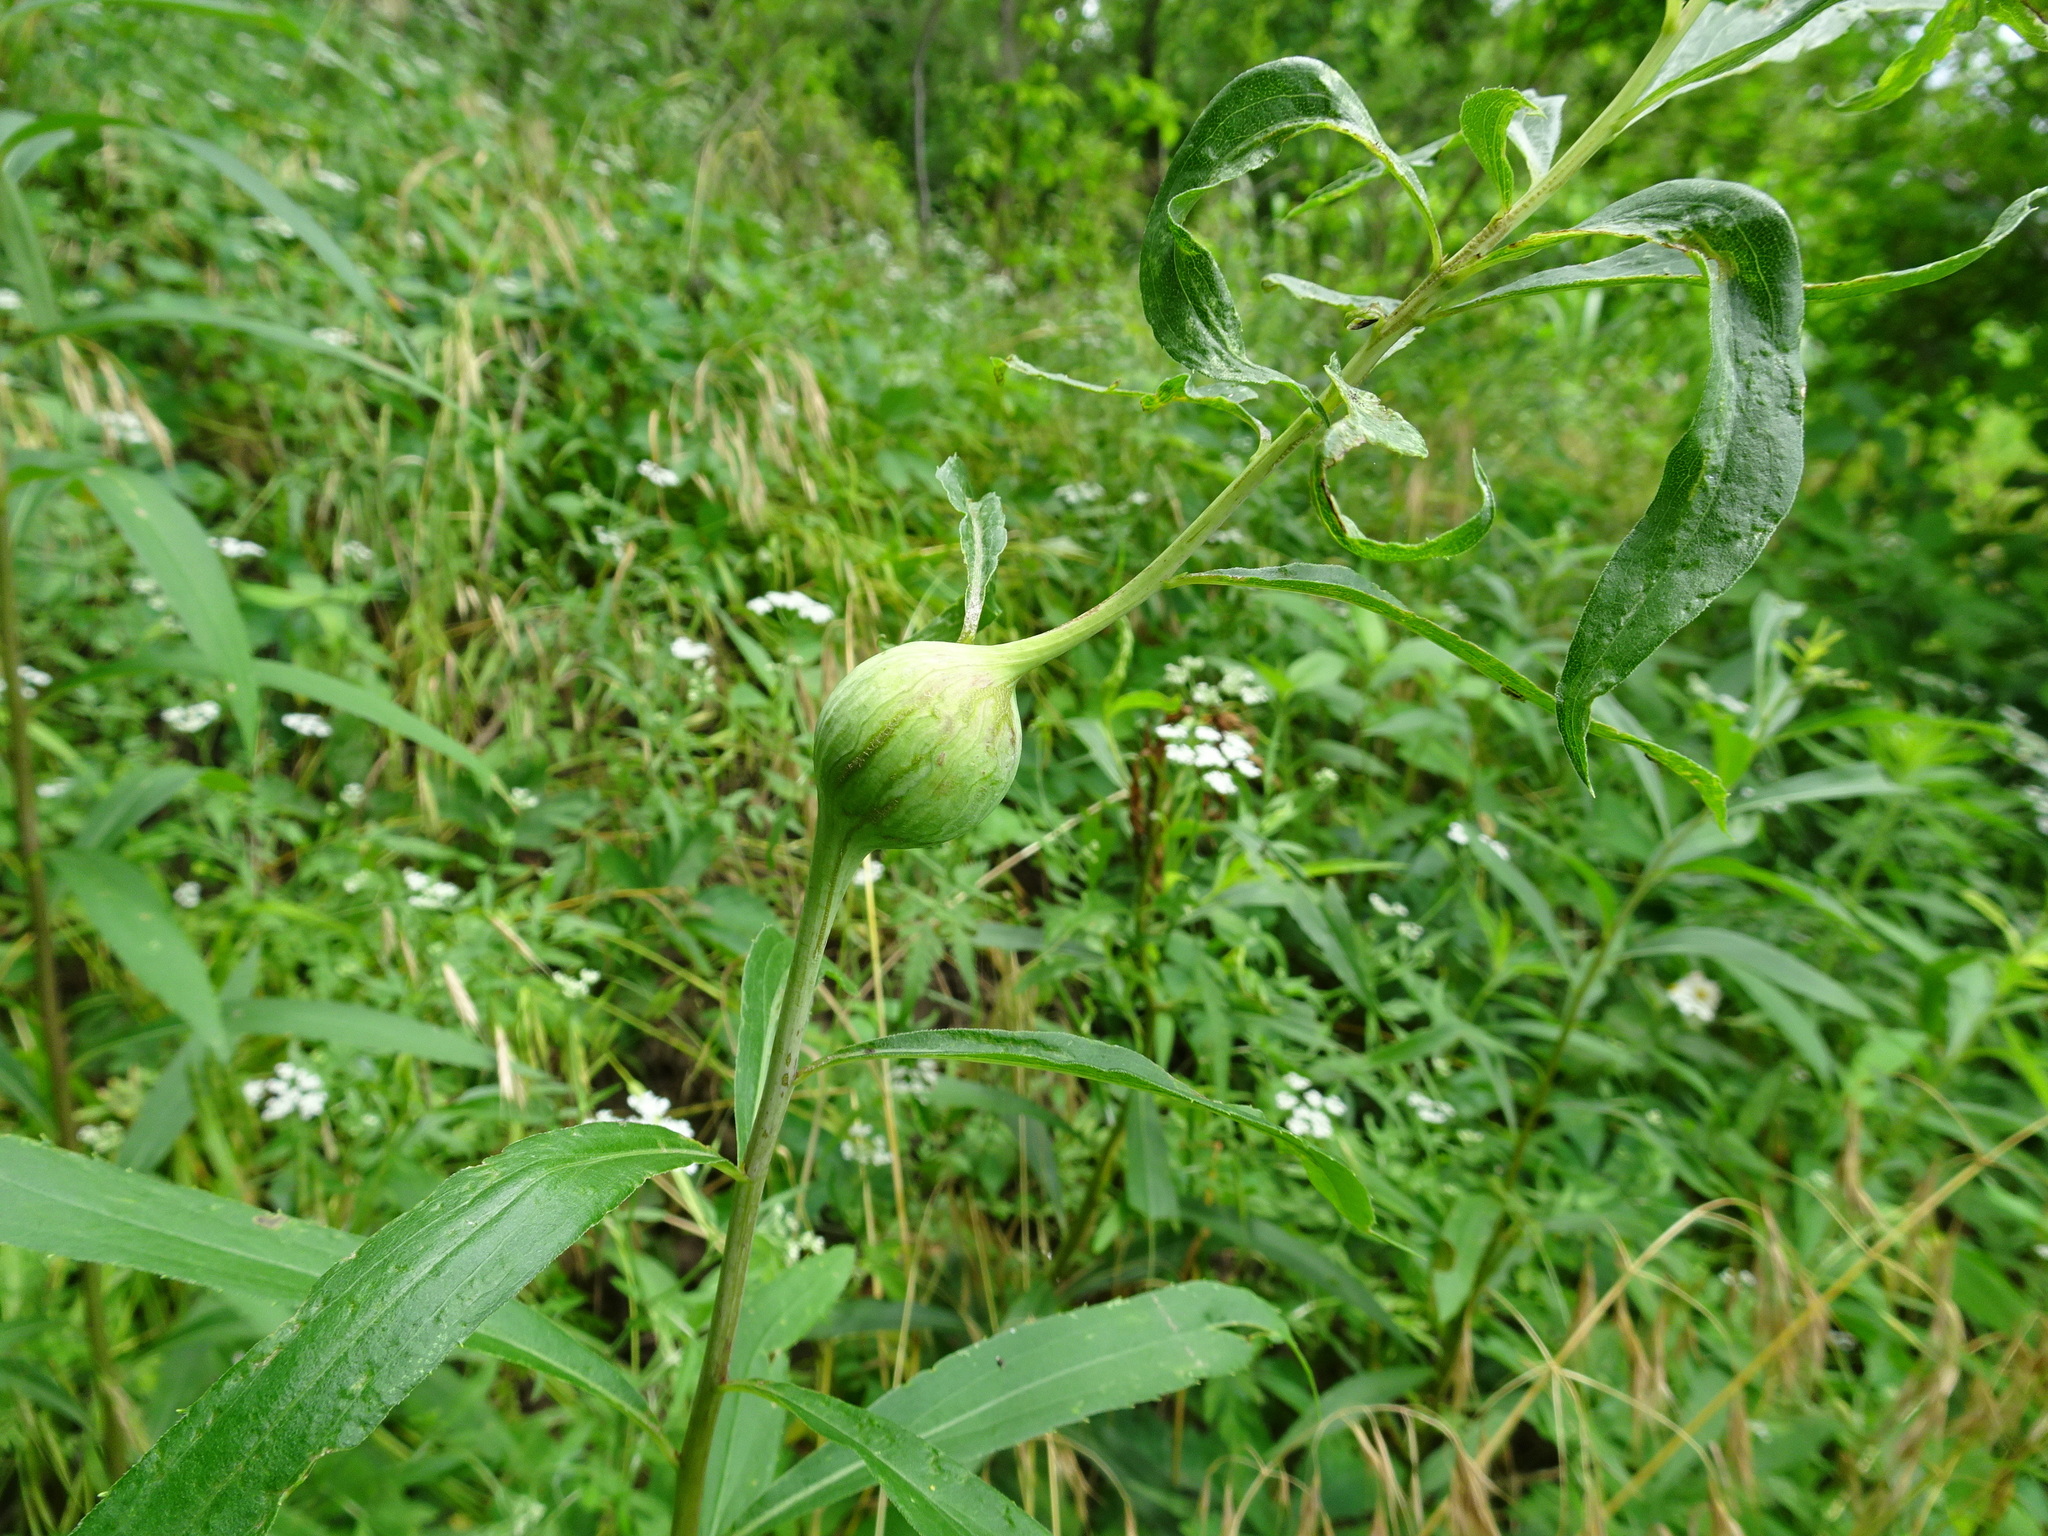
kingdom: Animalia
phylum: Arthropoda
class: Insecta
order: Diptera
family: Tephritidae
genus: Eurosta
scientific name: Eurosta solidaginis
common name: Goldenrod gall fly
